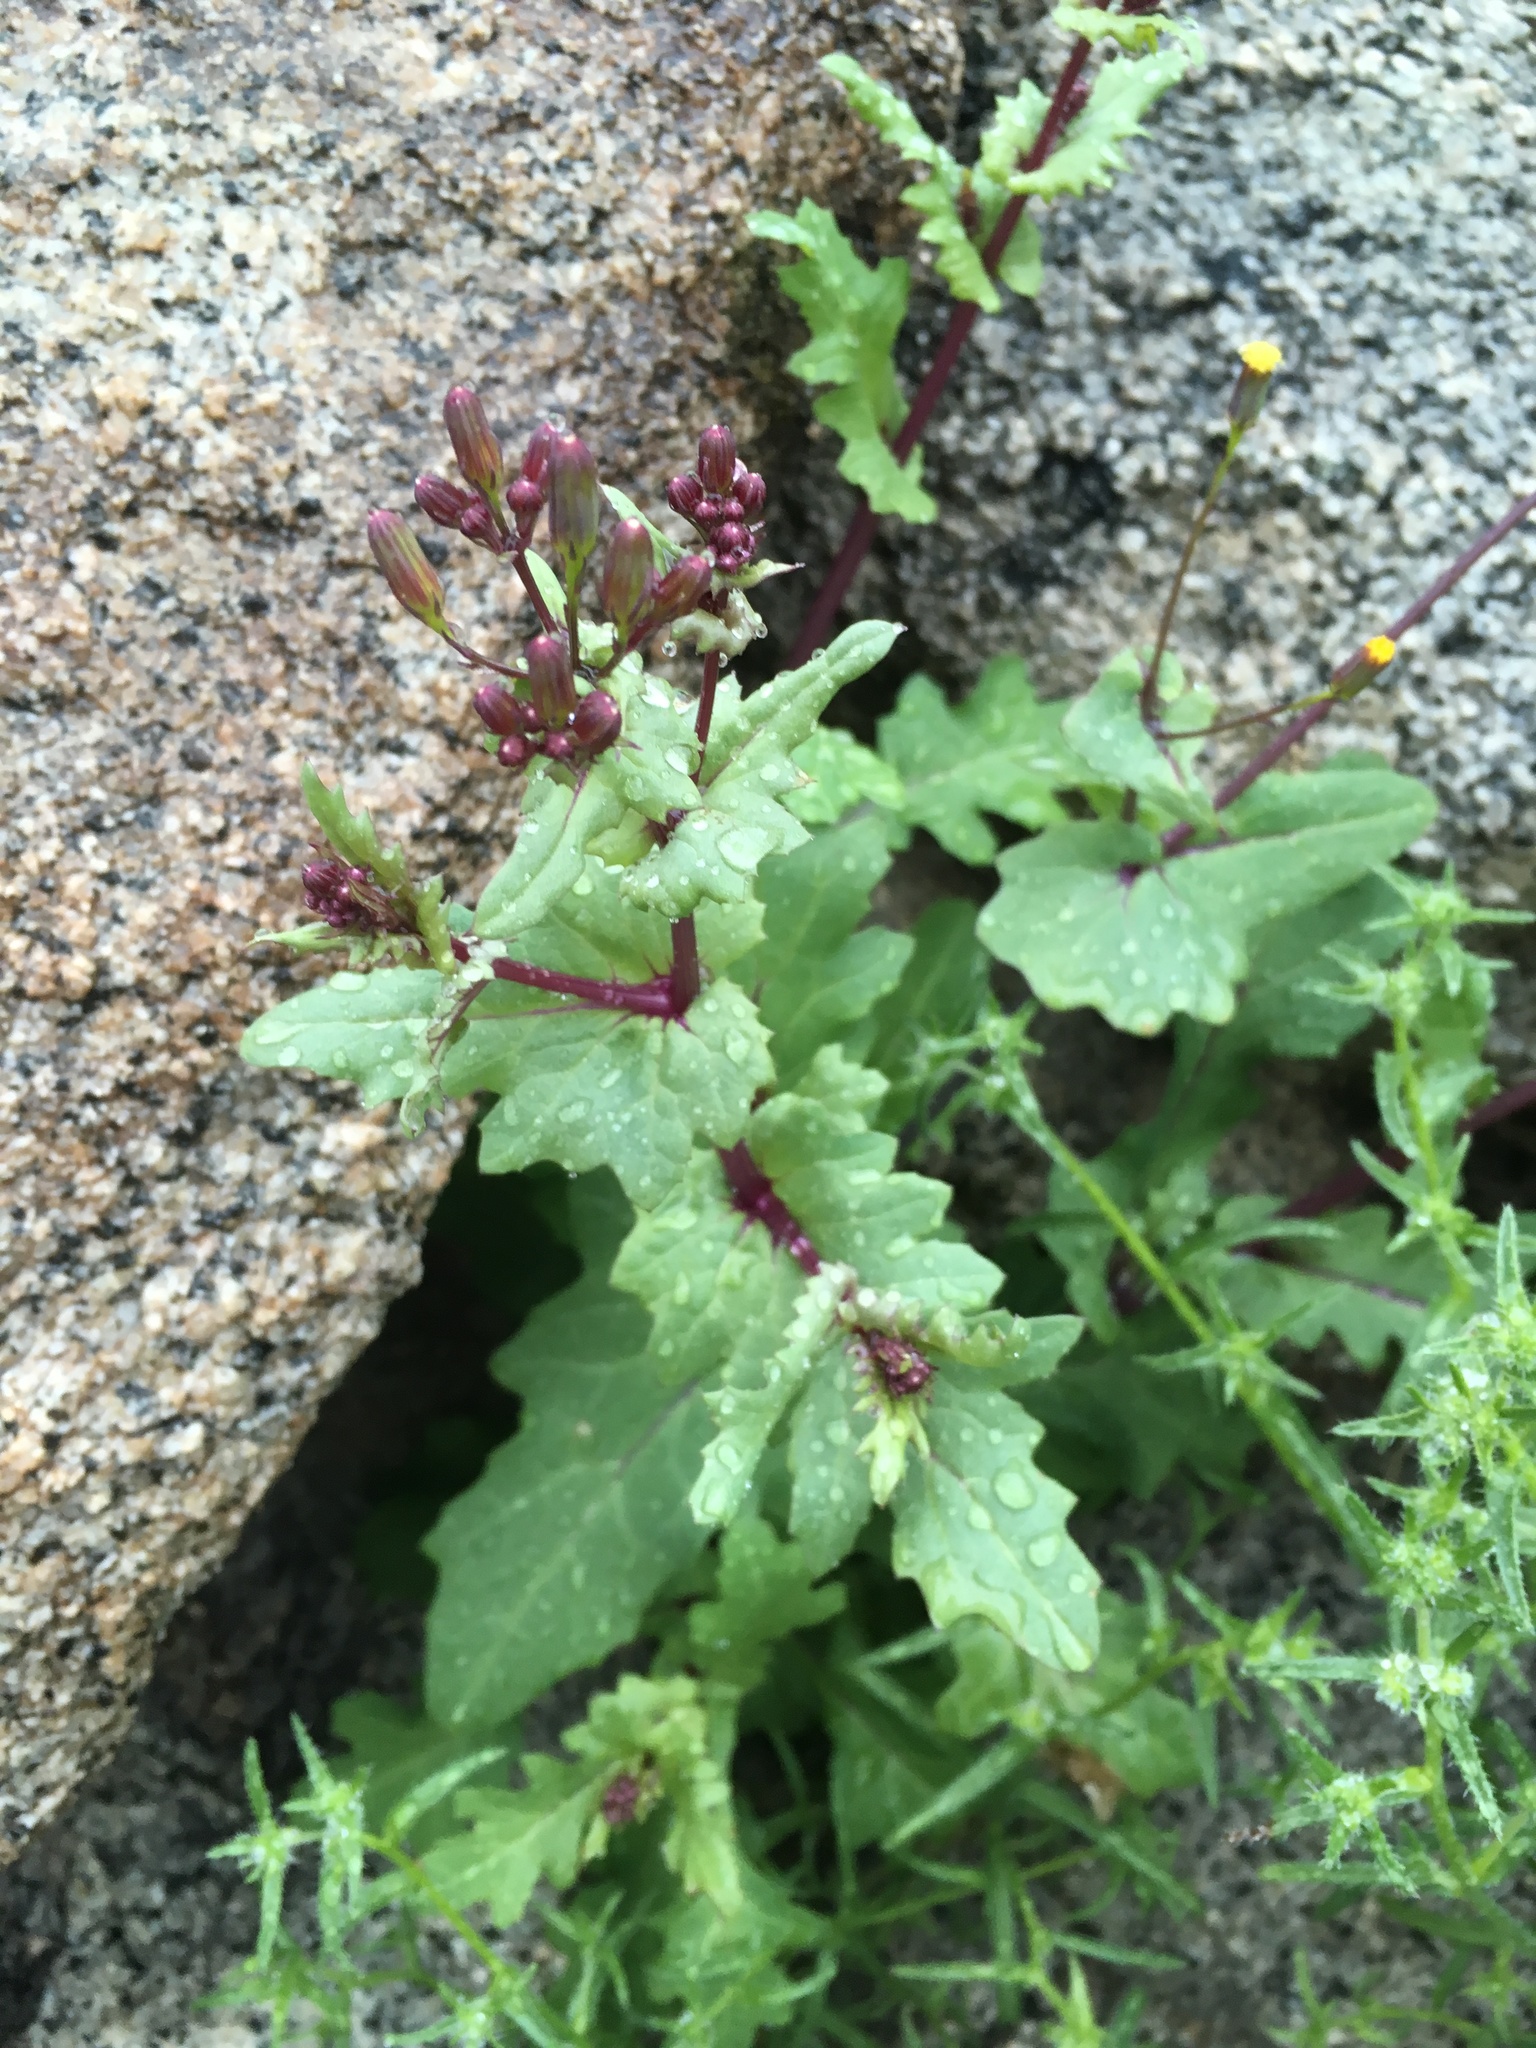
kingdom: Plantae
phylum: Tracheophyta
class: Magnoliopsida
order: Asterales
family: Asteraceae
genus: Senecio
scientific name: Senecio mohavensis
